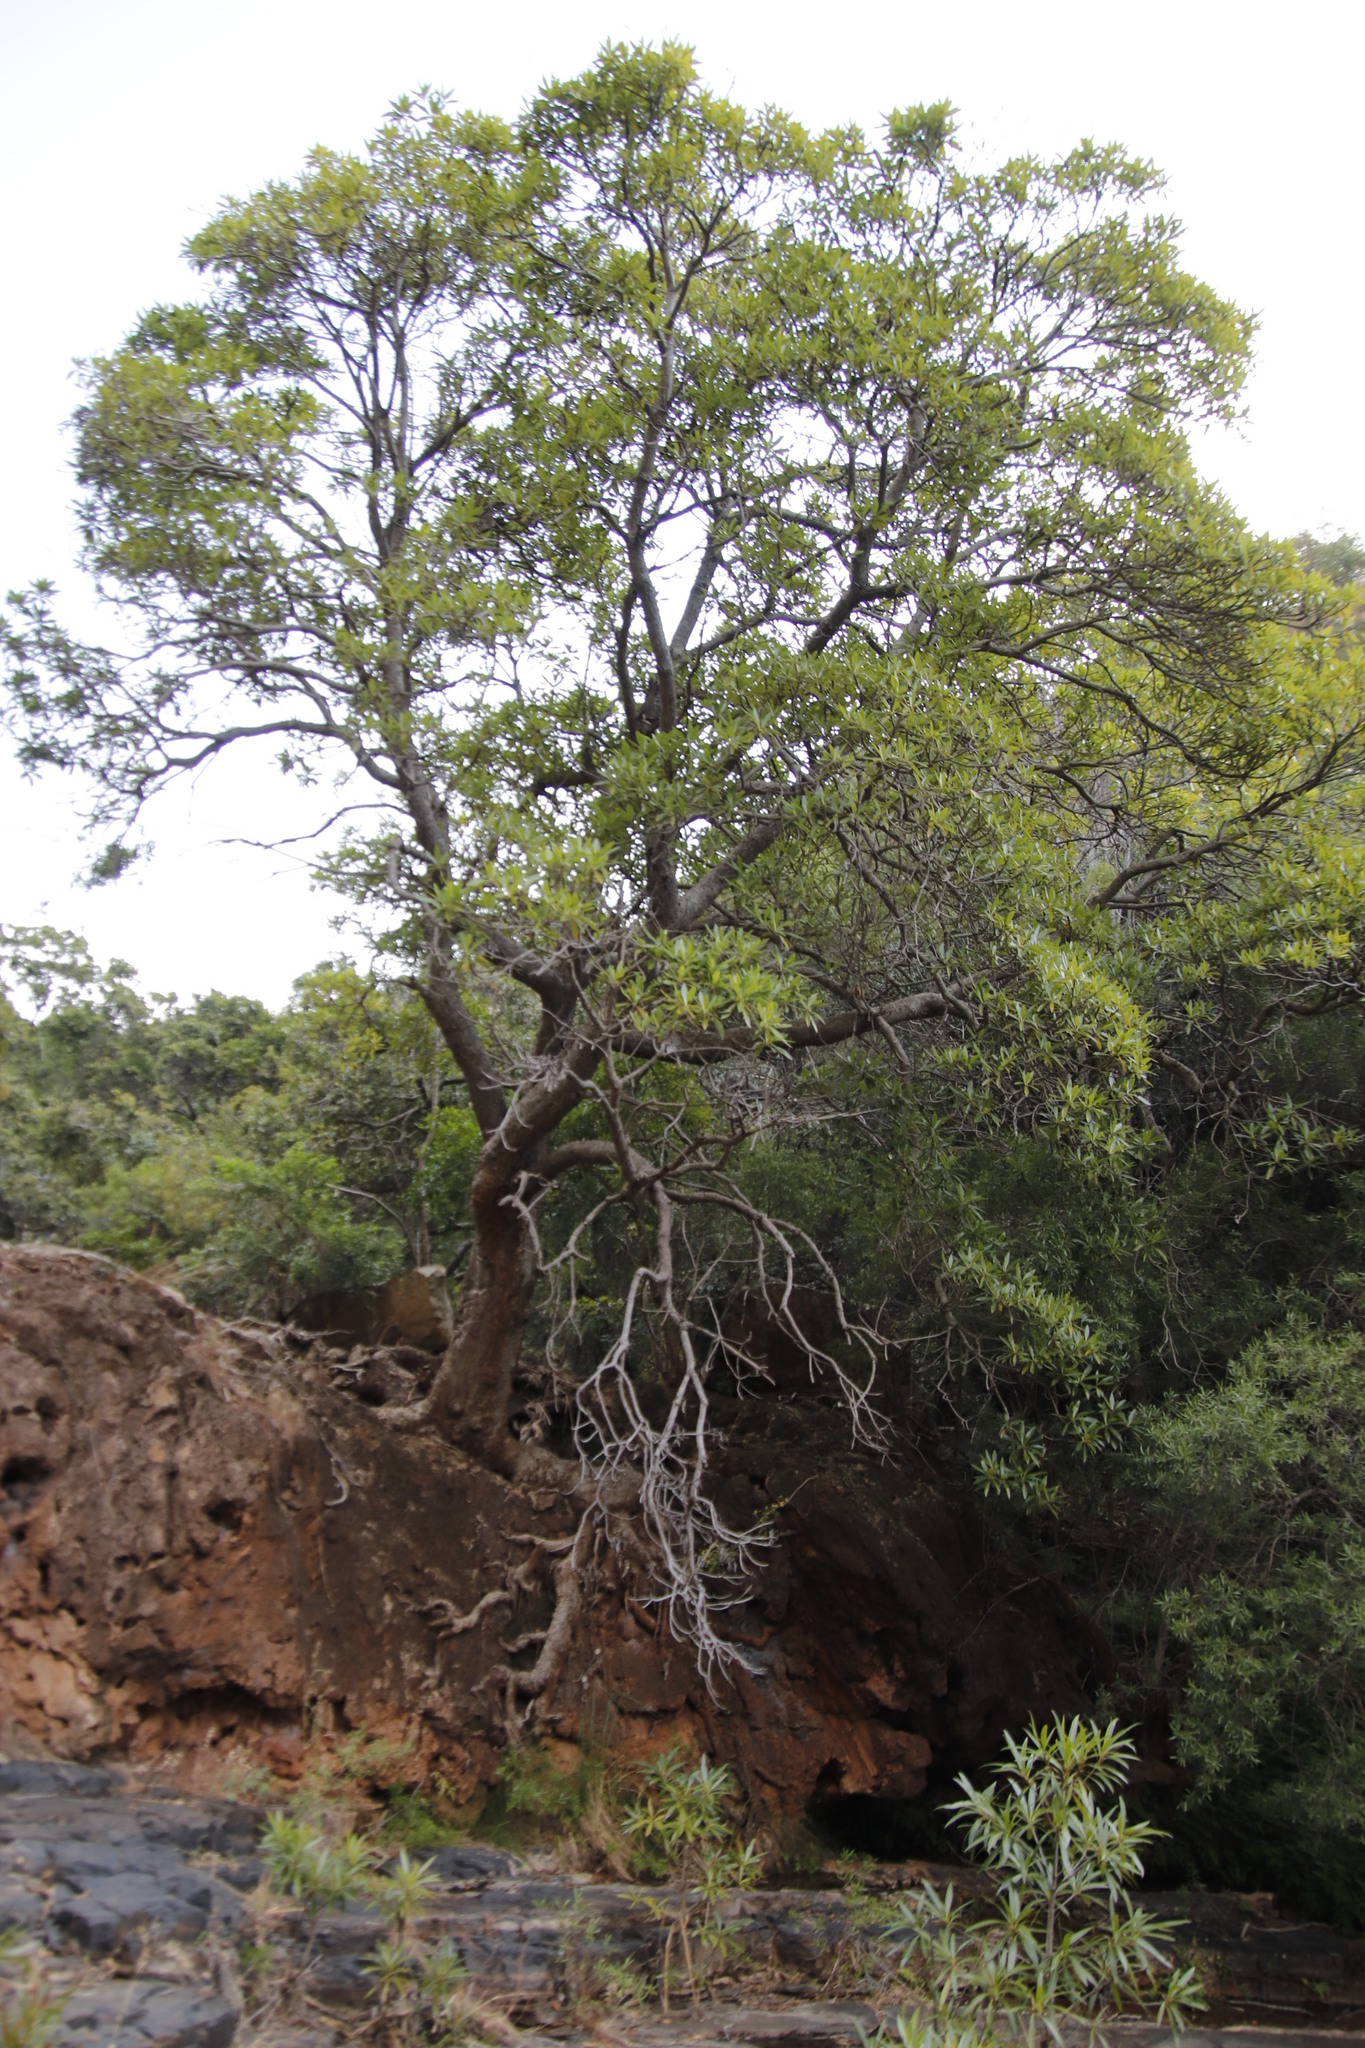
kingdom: Plantae
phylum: Tracheophyta
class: Magnoliopsida
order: Gentianales
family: Rubiaceae
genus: Breonadia
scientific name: Breonadia salicina
